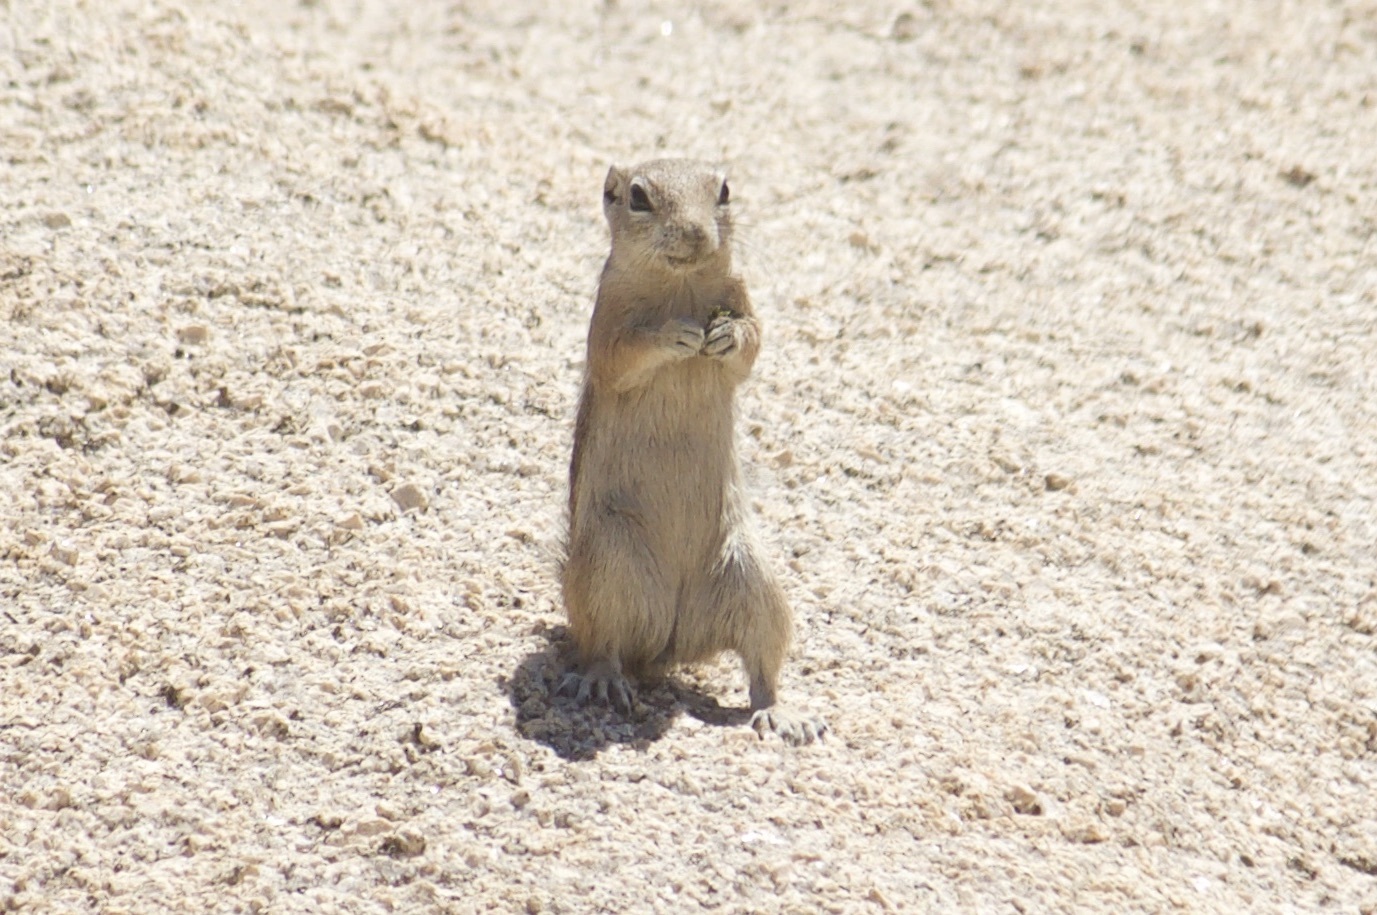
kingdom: Animalia
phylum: Chordata
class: Mammalia
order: Rodentia
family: Sciuridae
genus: Ammospermophilus
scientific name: Ammospermophilus leucurus
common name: White-tailed antelope squirrel
